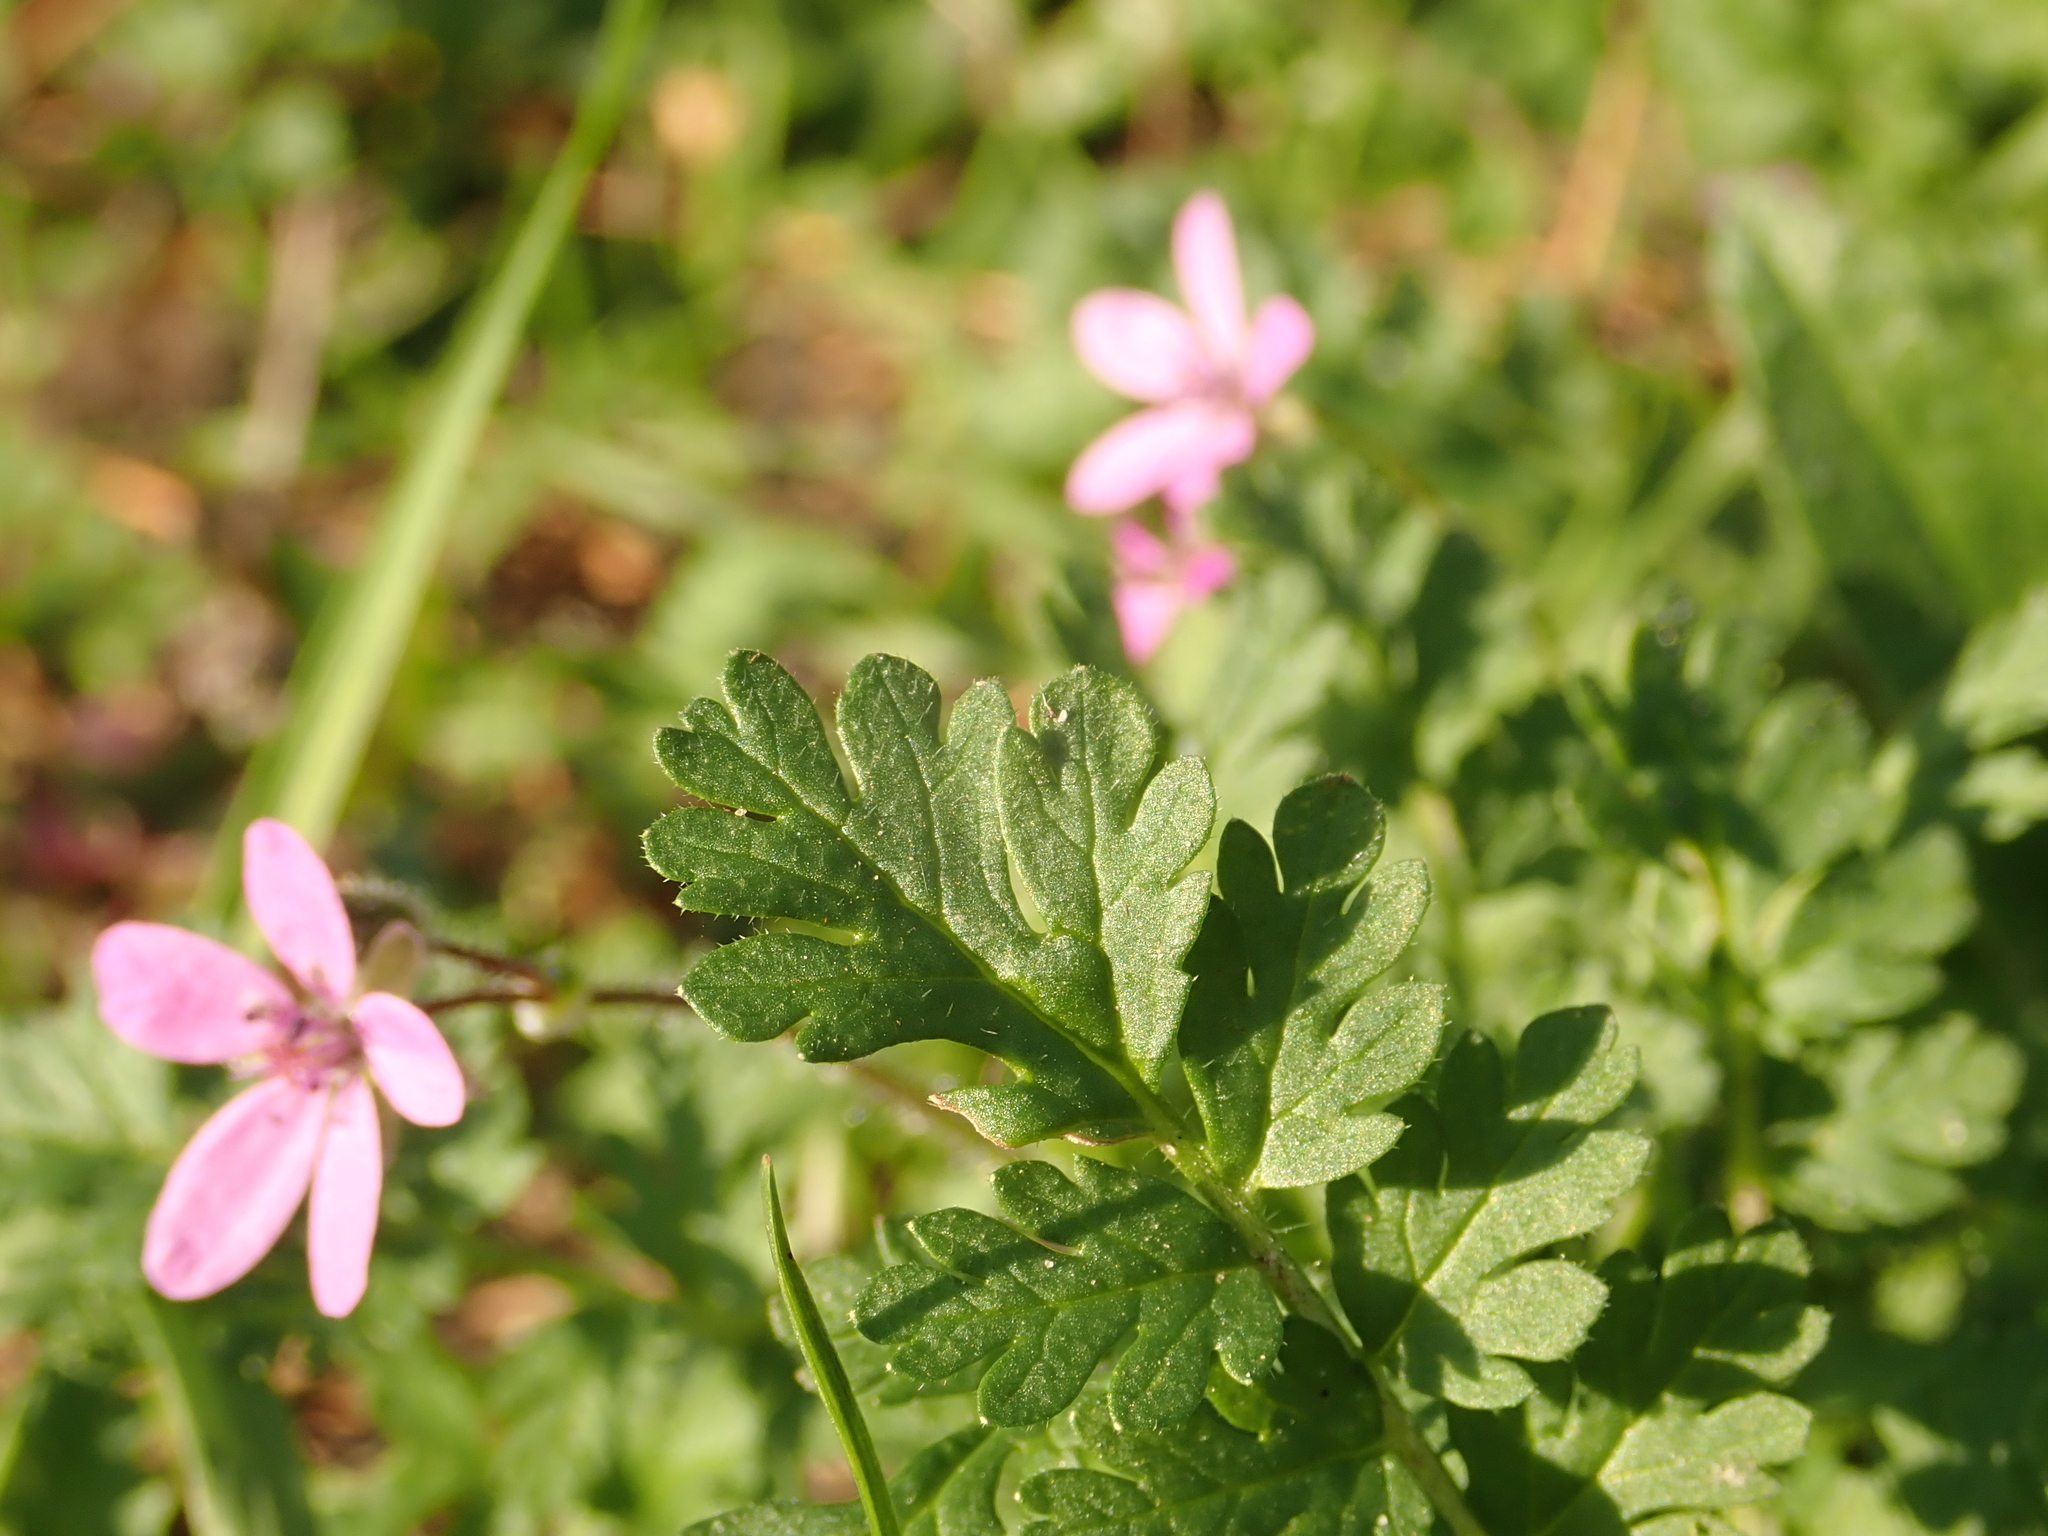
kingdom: Plantae
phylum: Tracheophyta
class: Magnoliopsida
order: Geraniales
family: Geraniaceae
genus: Erodium
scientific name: Erodium cicutarium
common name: Common stork's-bill
